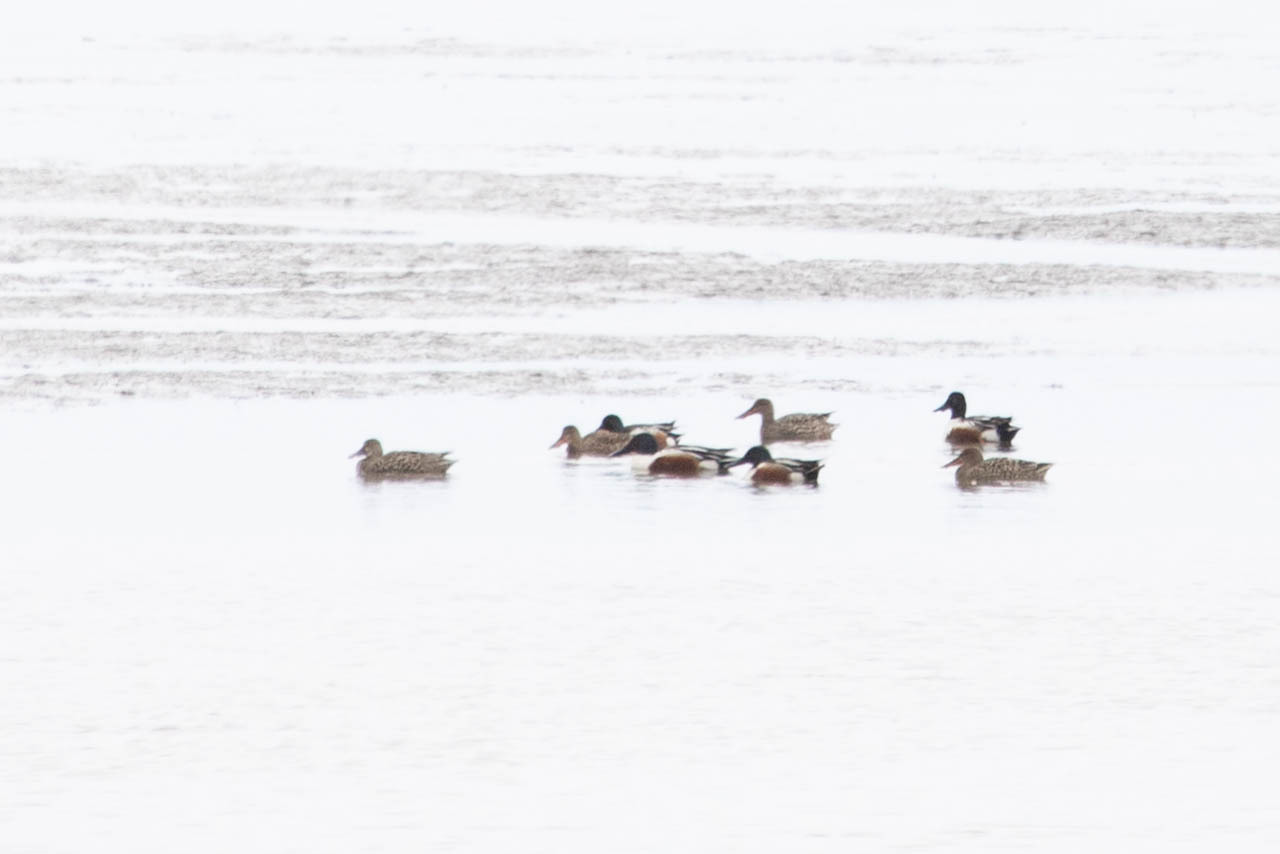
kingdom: Animalia
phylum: Chordata
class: Aves
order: Anseriformes
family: Anatidae
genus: Spatula
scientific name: Spatula clypeata
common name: Northern shoveler
